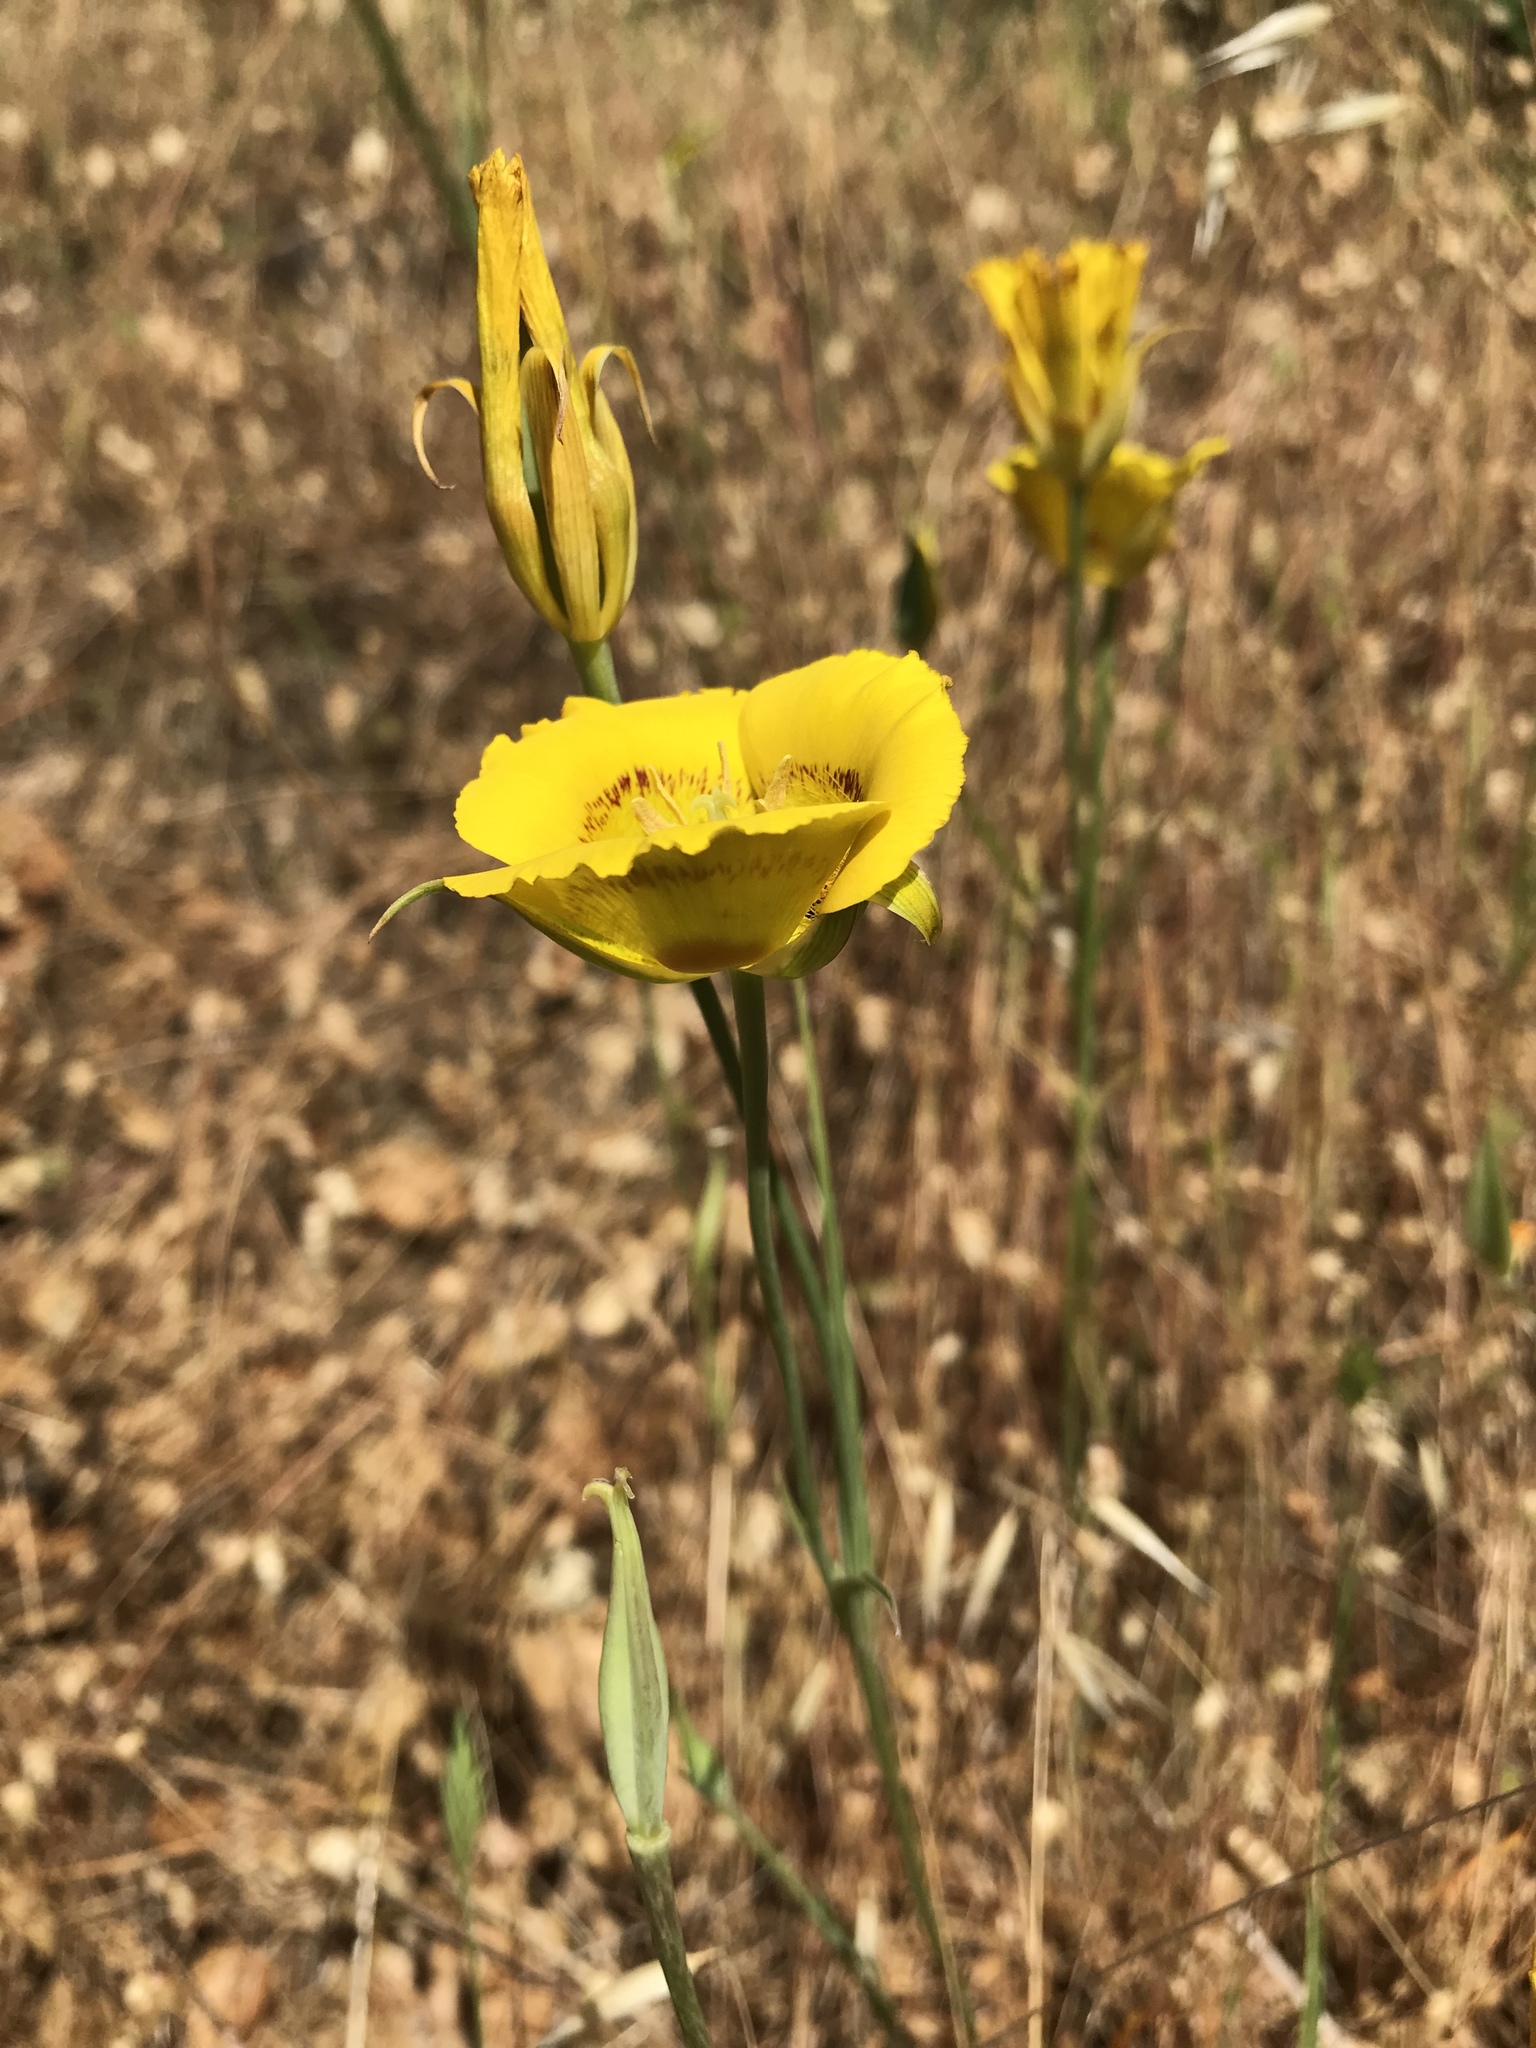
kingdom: Plantae
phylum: Tracheophyta
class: Liliopsida
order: Liliales
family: Liliaceae
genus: Calochortus
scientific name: Calochortus luteus
